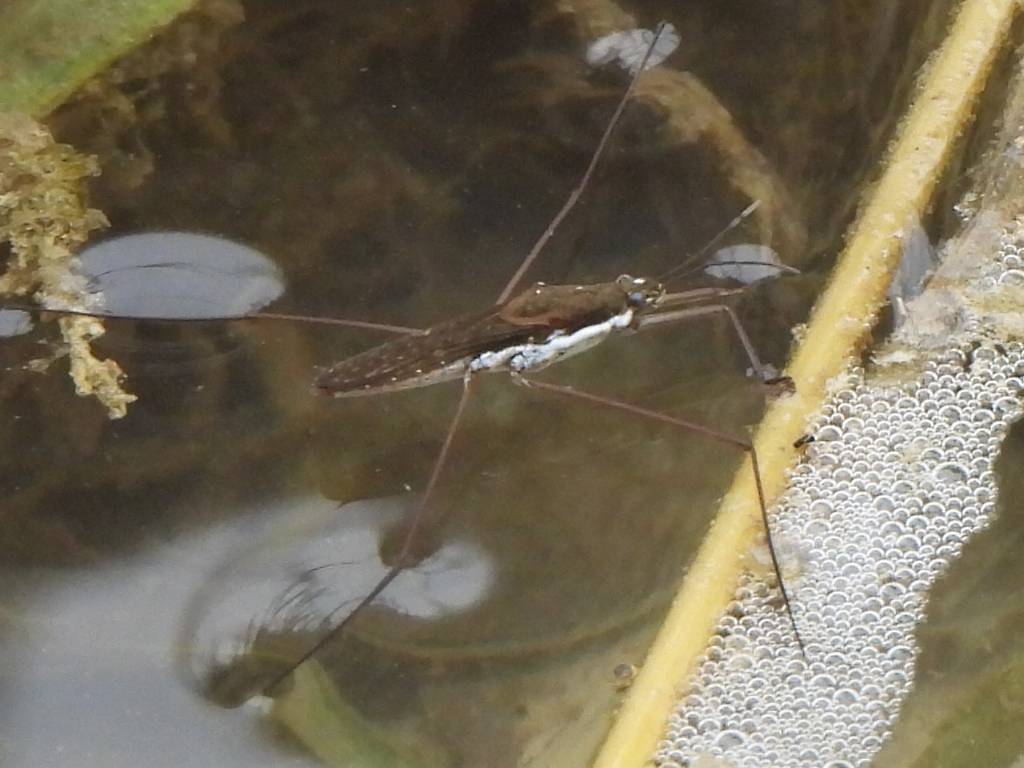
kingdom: Animalia
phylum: Arthropoda
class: Insecta
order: Hemiptera
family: Gerridae
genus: Aquarius
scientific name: Aquarius remigis
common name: Common water strider
